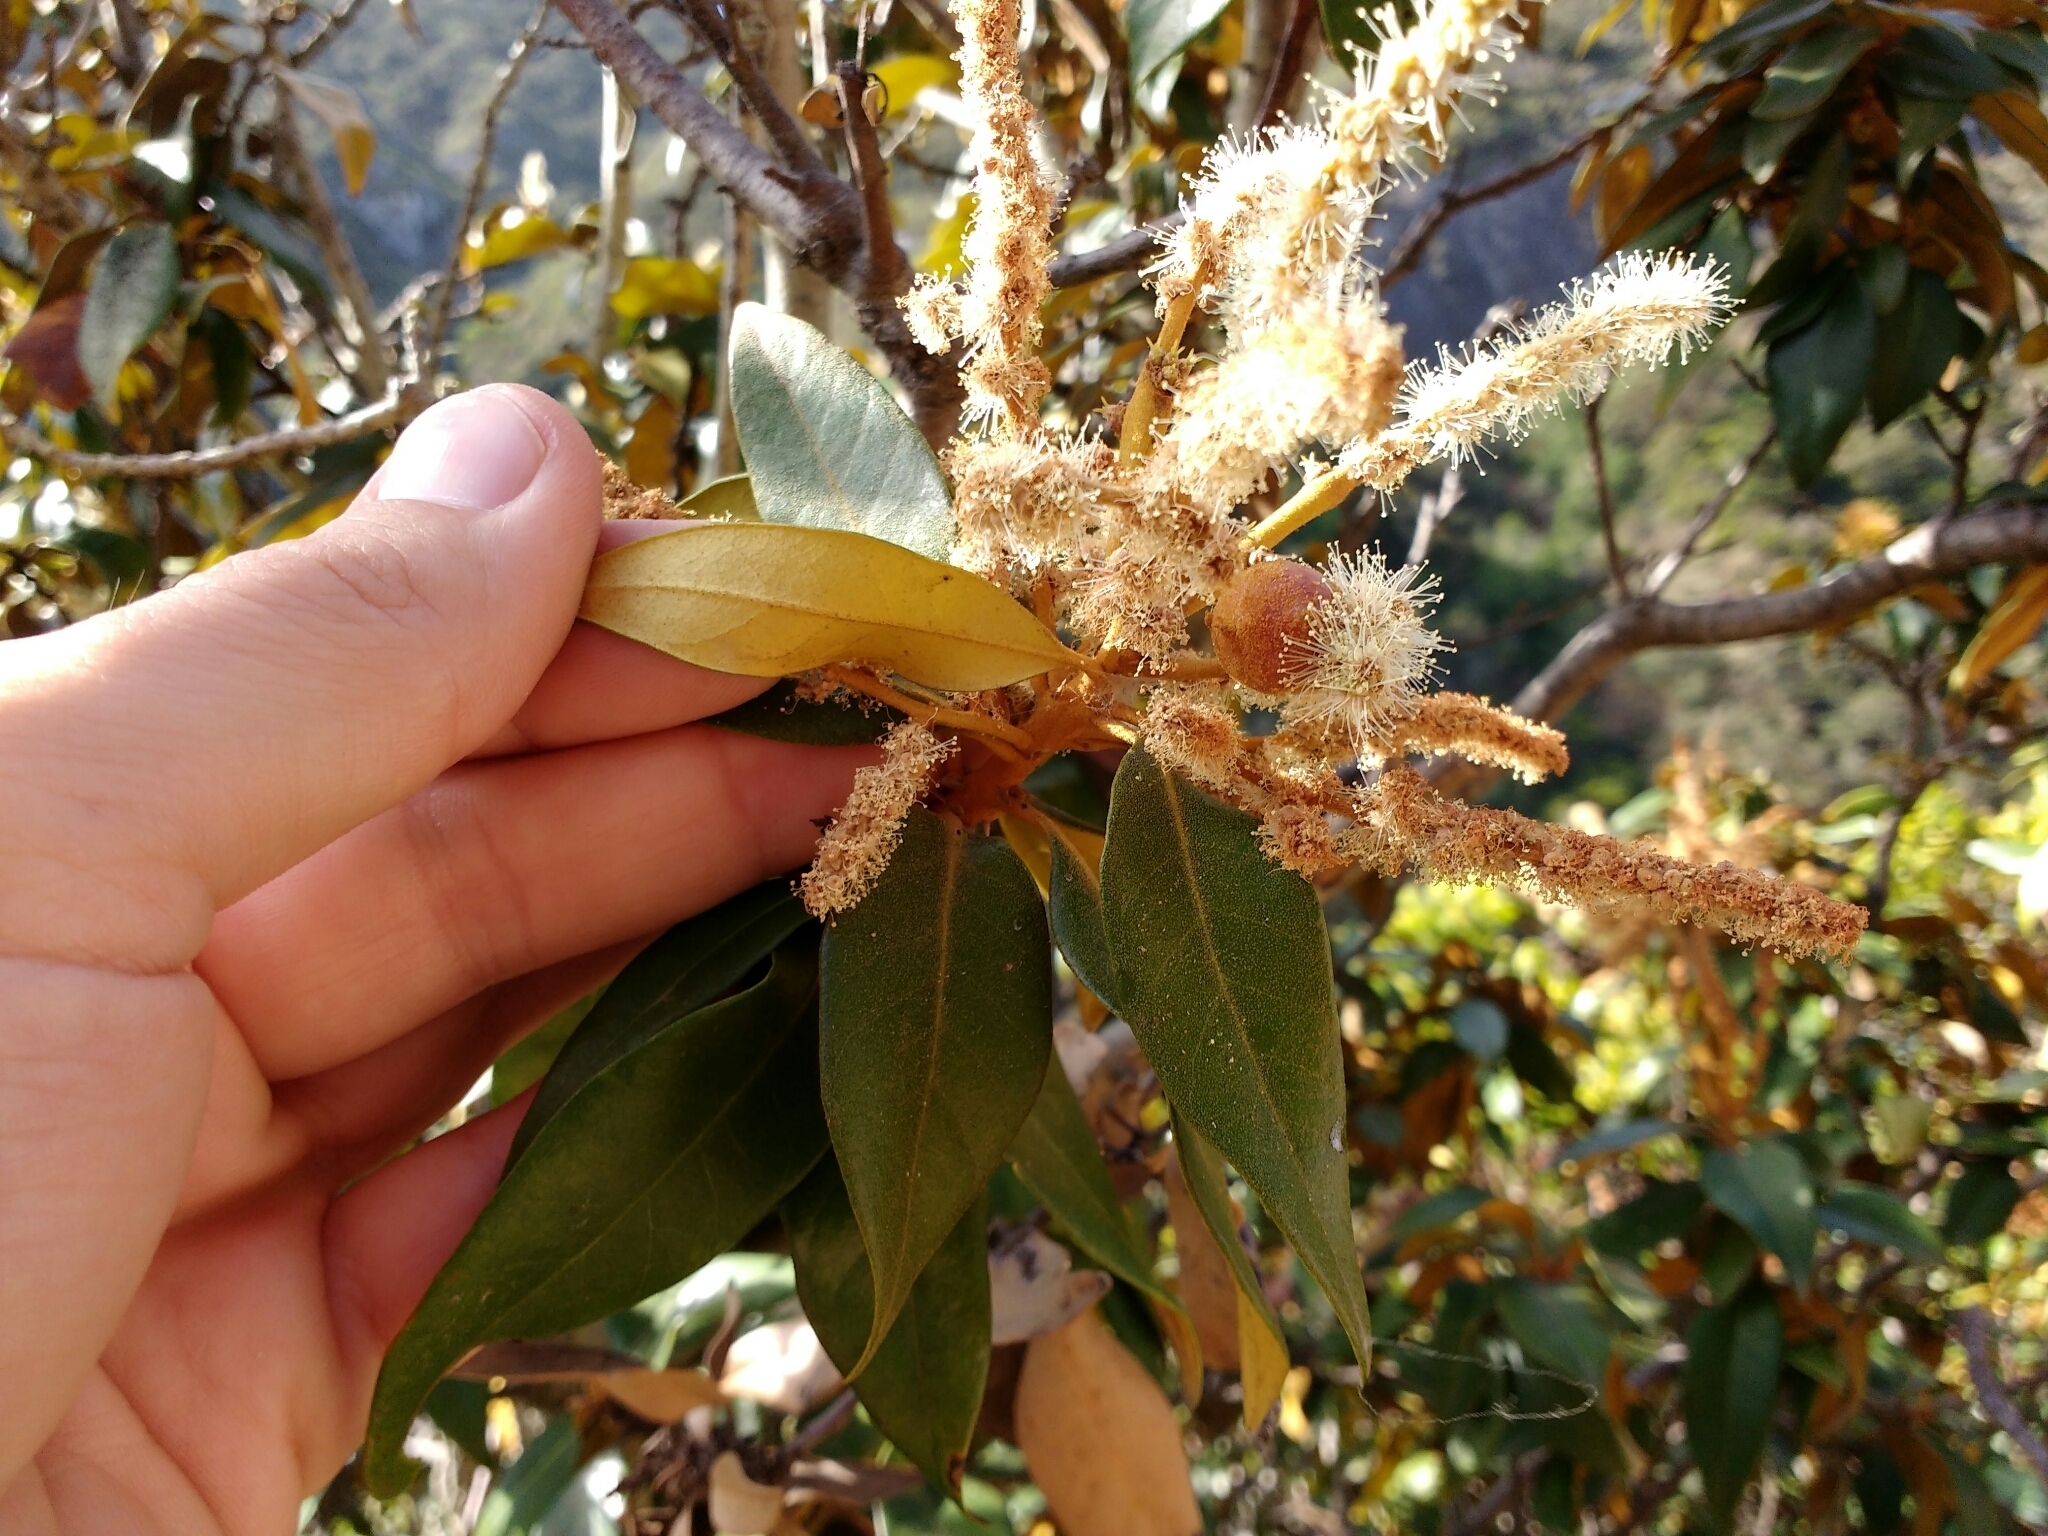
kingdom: Animalia
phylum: Arthropoda
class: Insecta
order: Hymenoptera
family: Cynipidae
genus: Synergus
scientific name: Synergus castanopsidis
